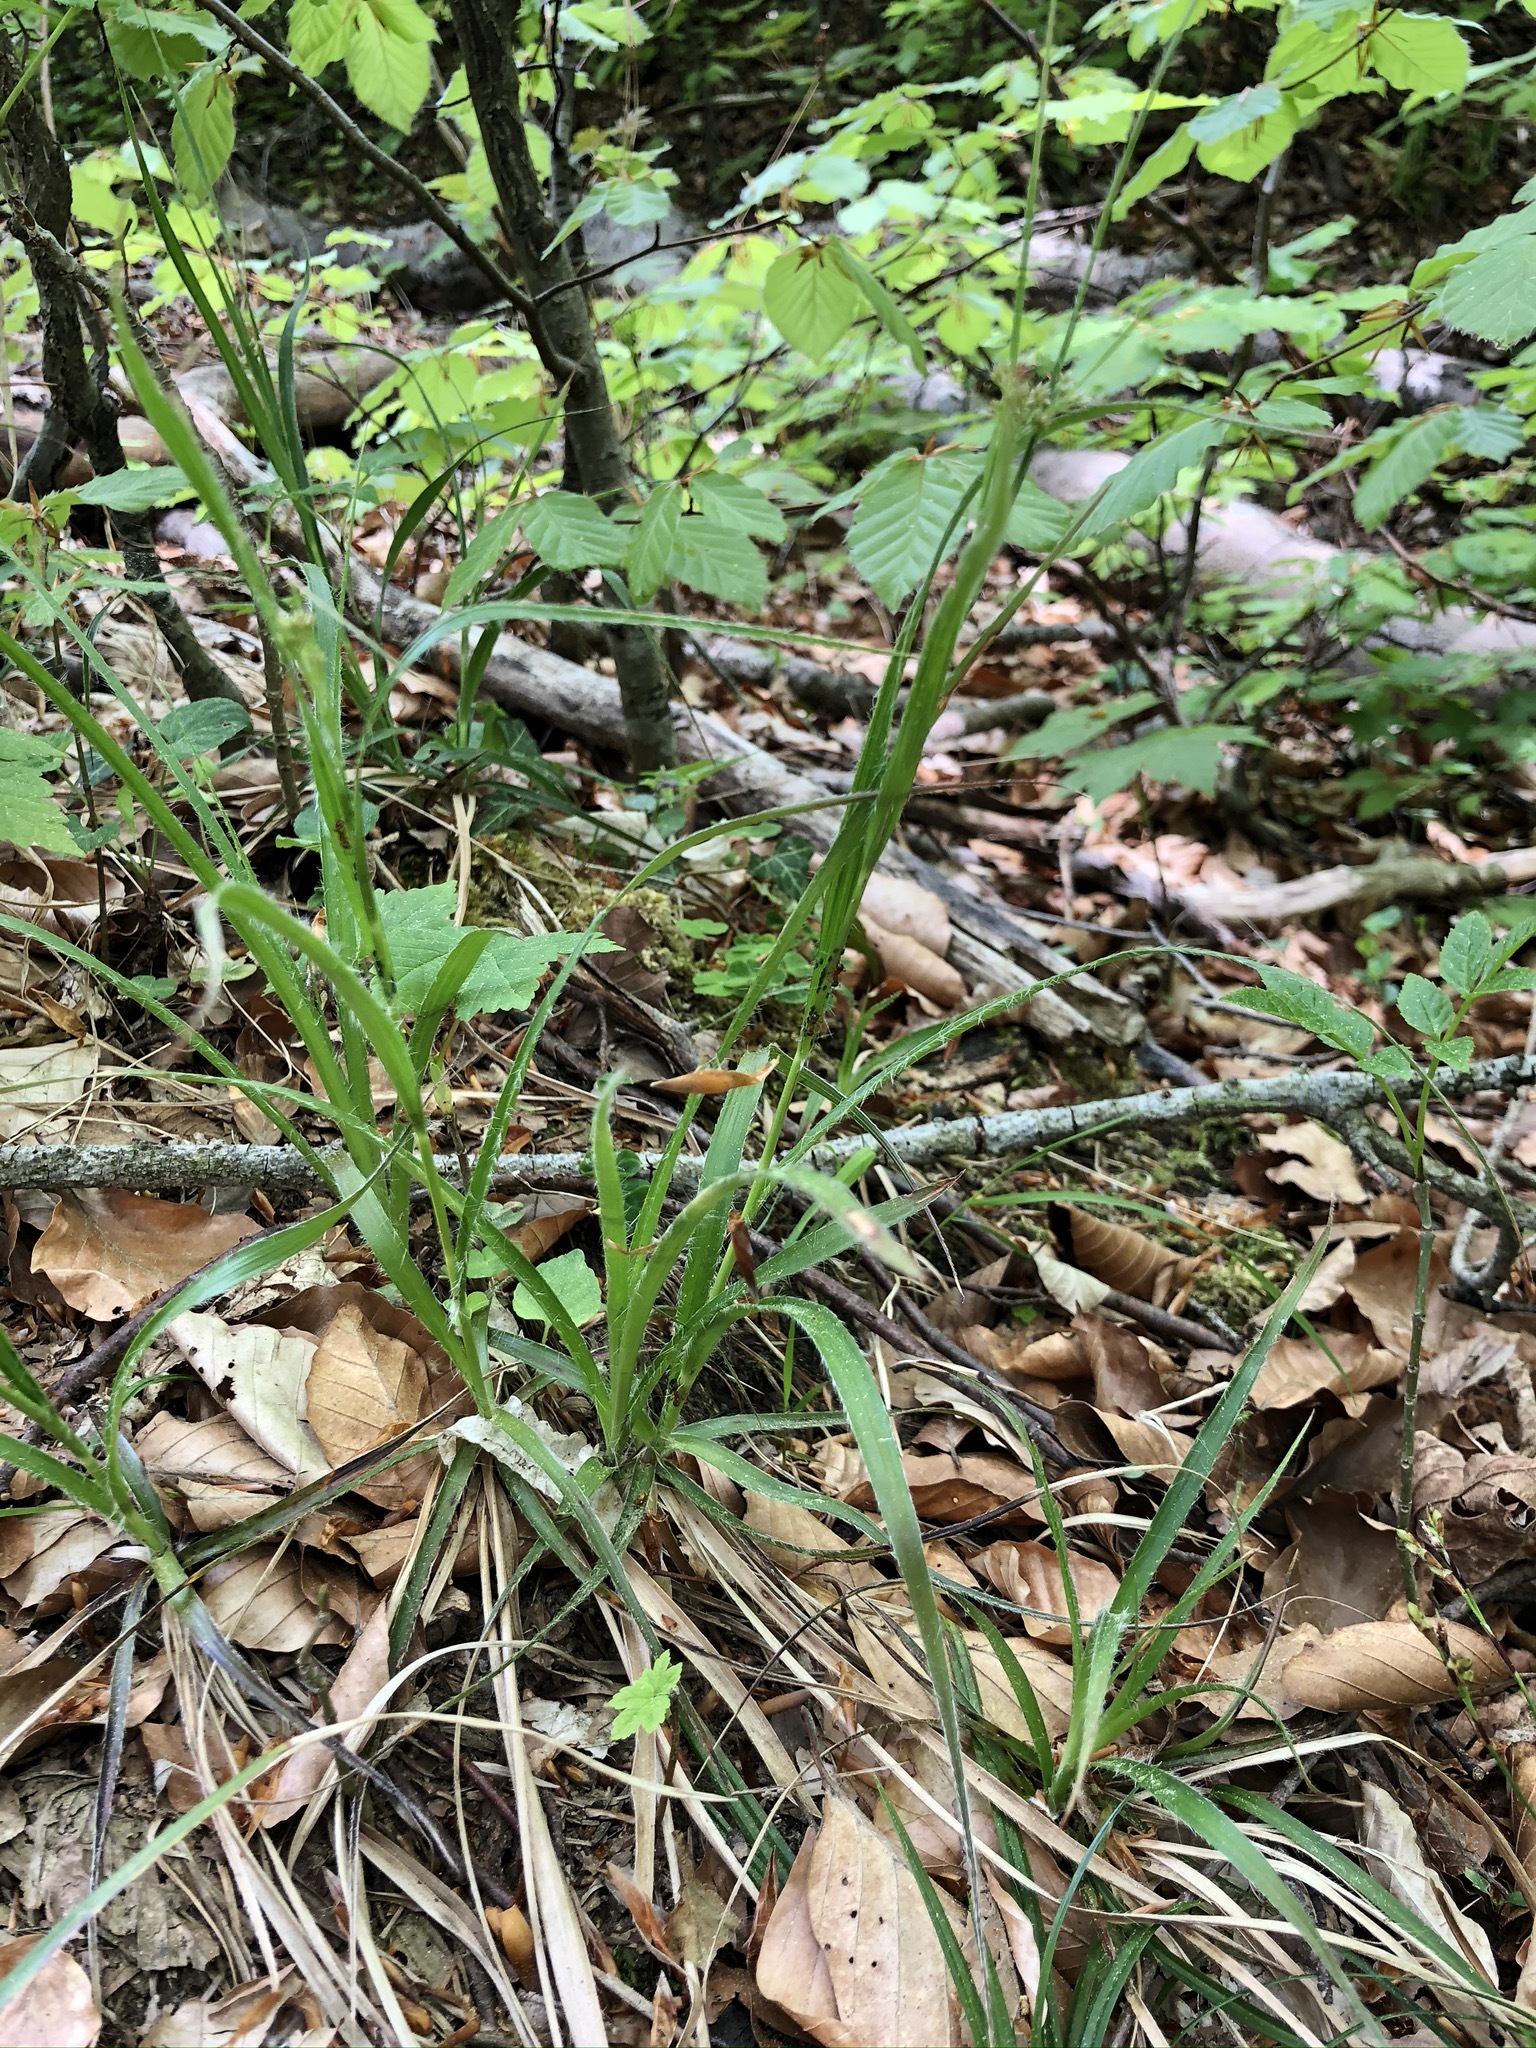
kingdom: Plantae
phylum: Tracheophyta
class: Liliopsida
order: Poales
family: Juncaceae
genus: Luzula
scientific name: Luzula luzuloides
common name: White wood-rush
